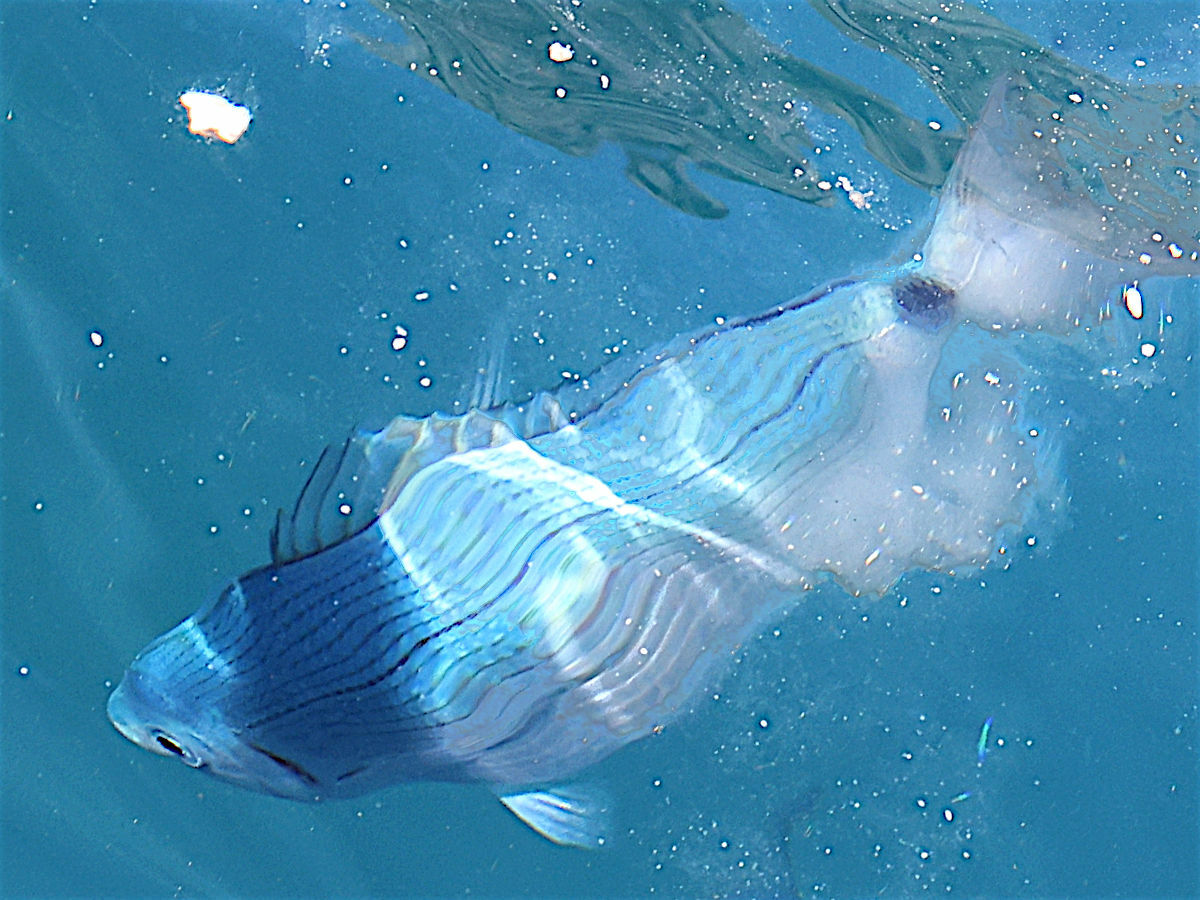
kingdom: Animalia
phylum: Chordata
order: Perciformes
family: Sparidae
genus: Oblada
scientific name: Oblada melanura
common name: Saddled seabream
